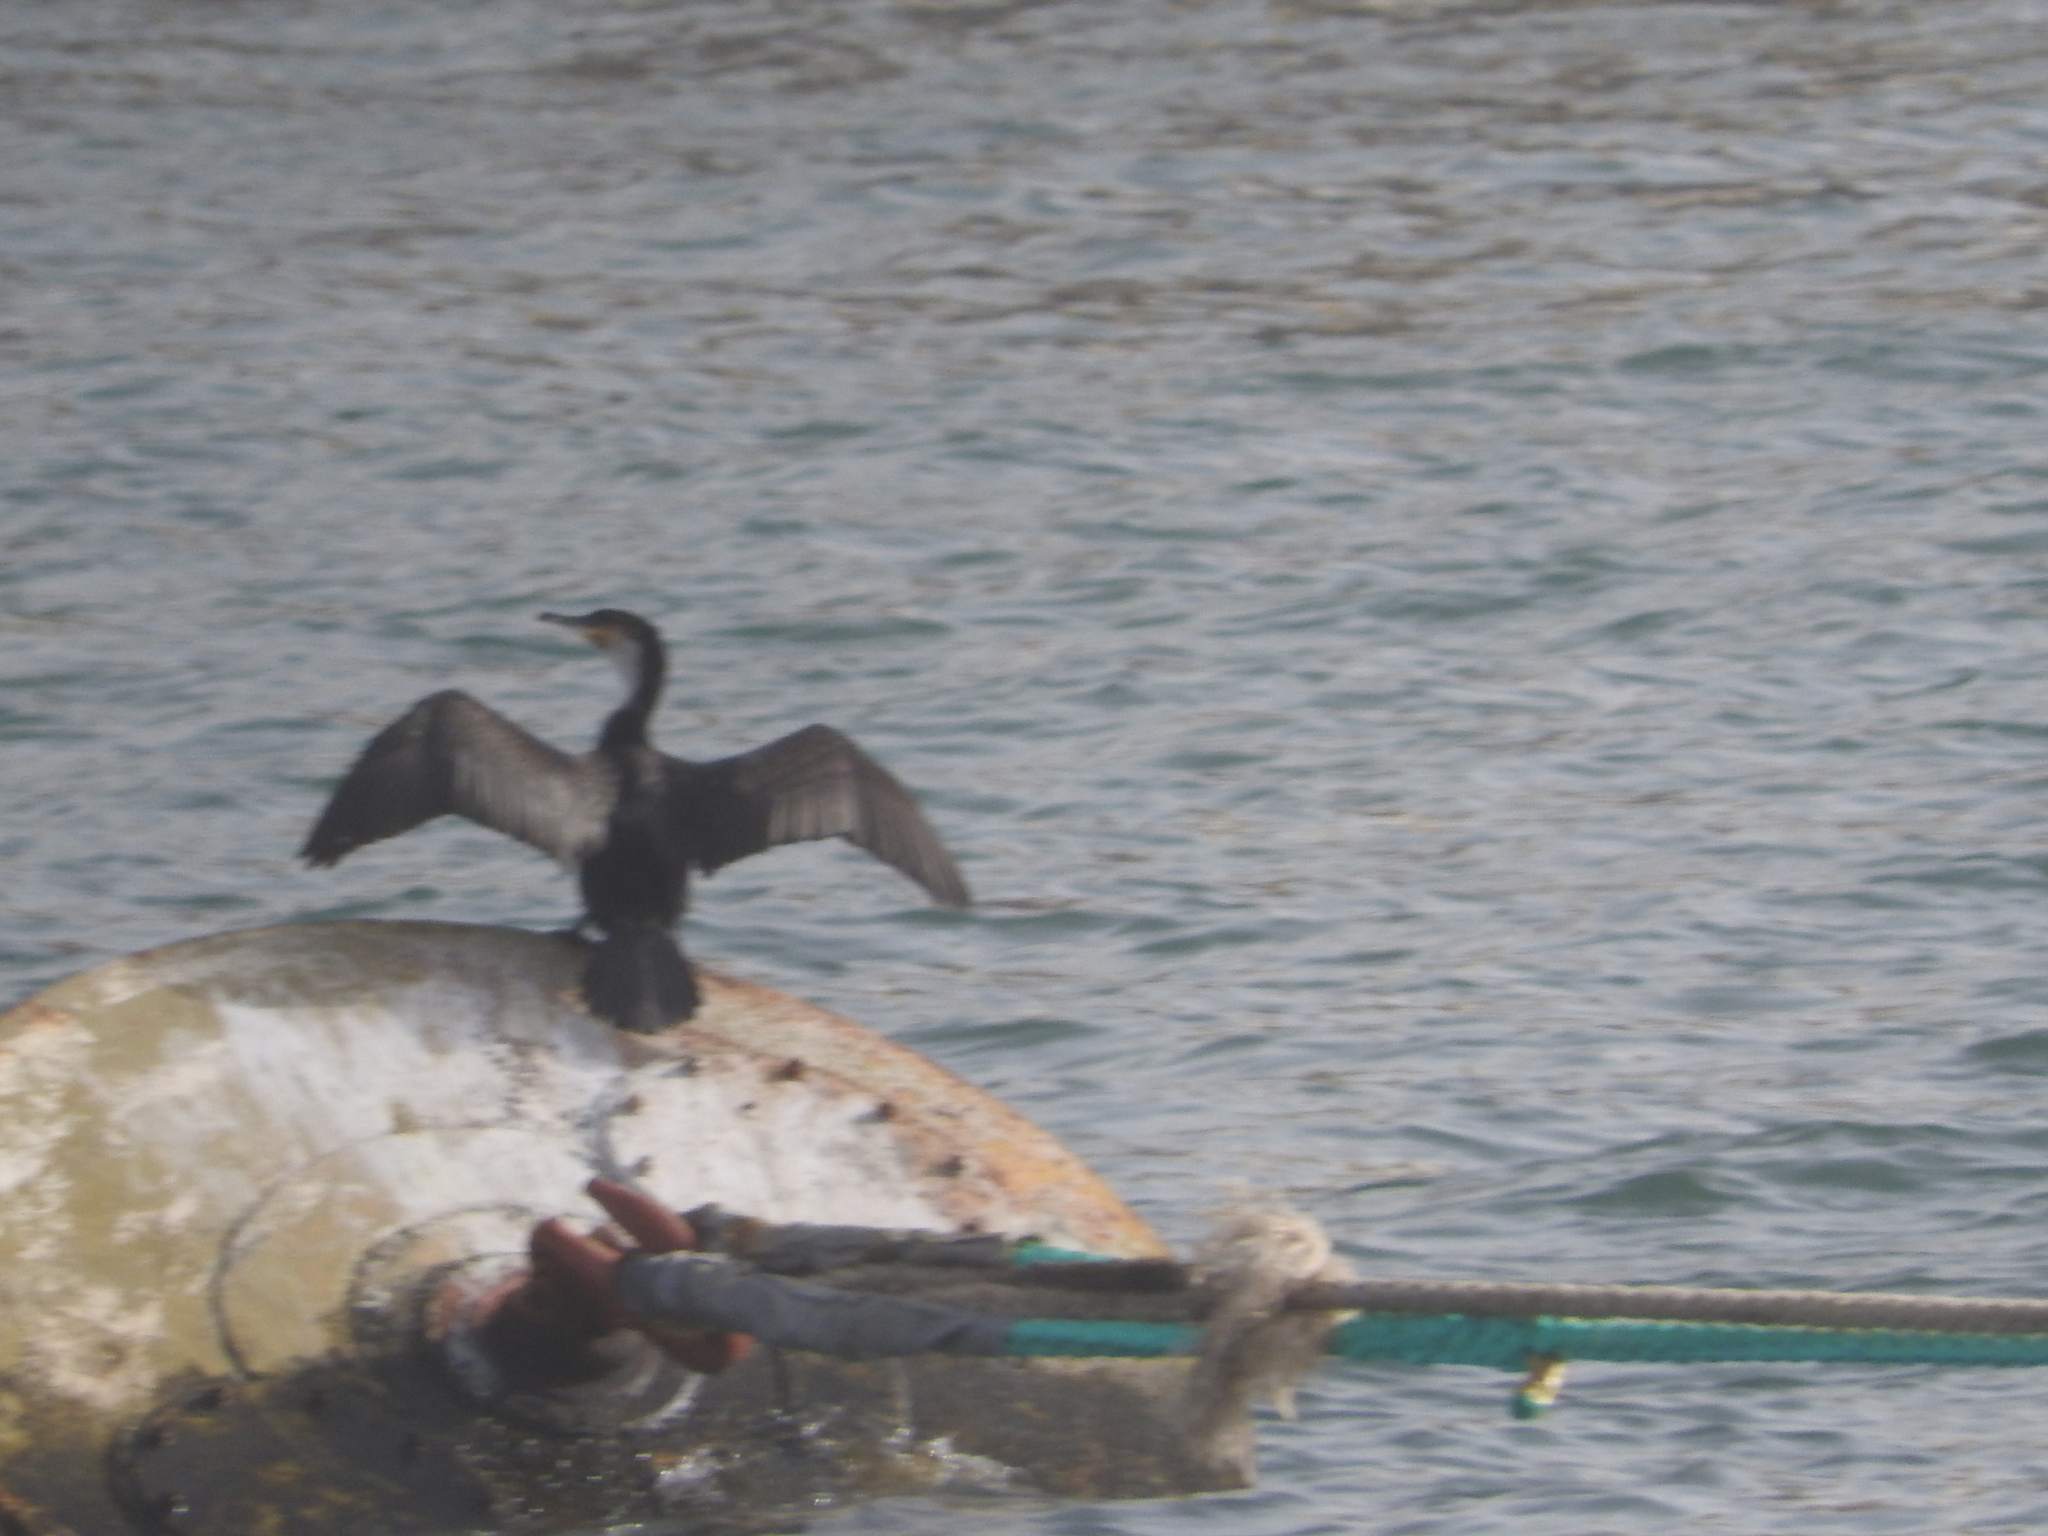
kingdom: Animalia
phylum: Chordata
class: Aves
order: Suliformes
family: Phalacrocoracidae
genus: Phalacrocorax
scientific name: Phalacrocorax carbo
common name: Great cormorant
